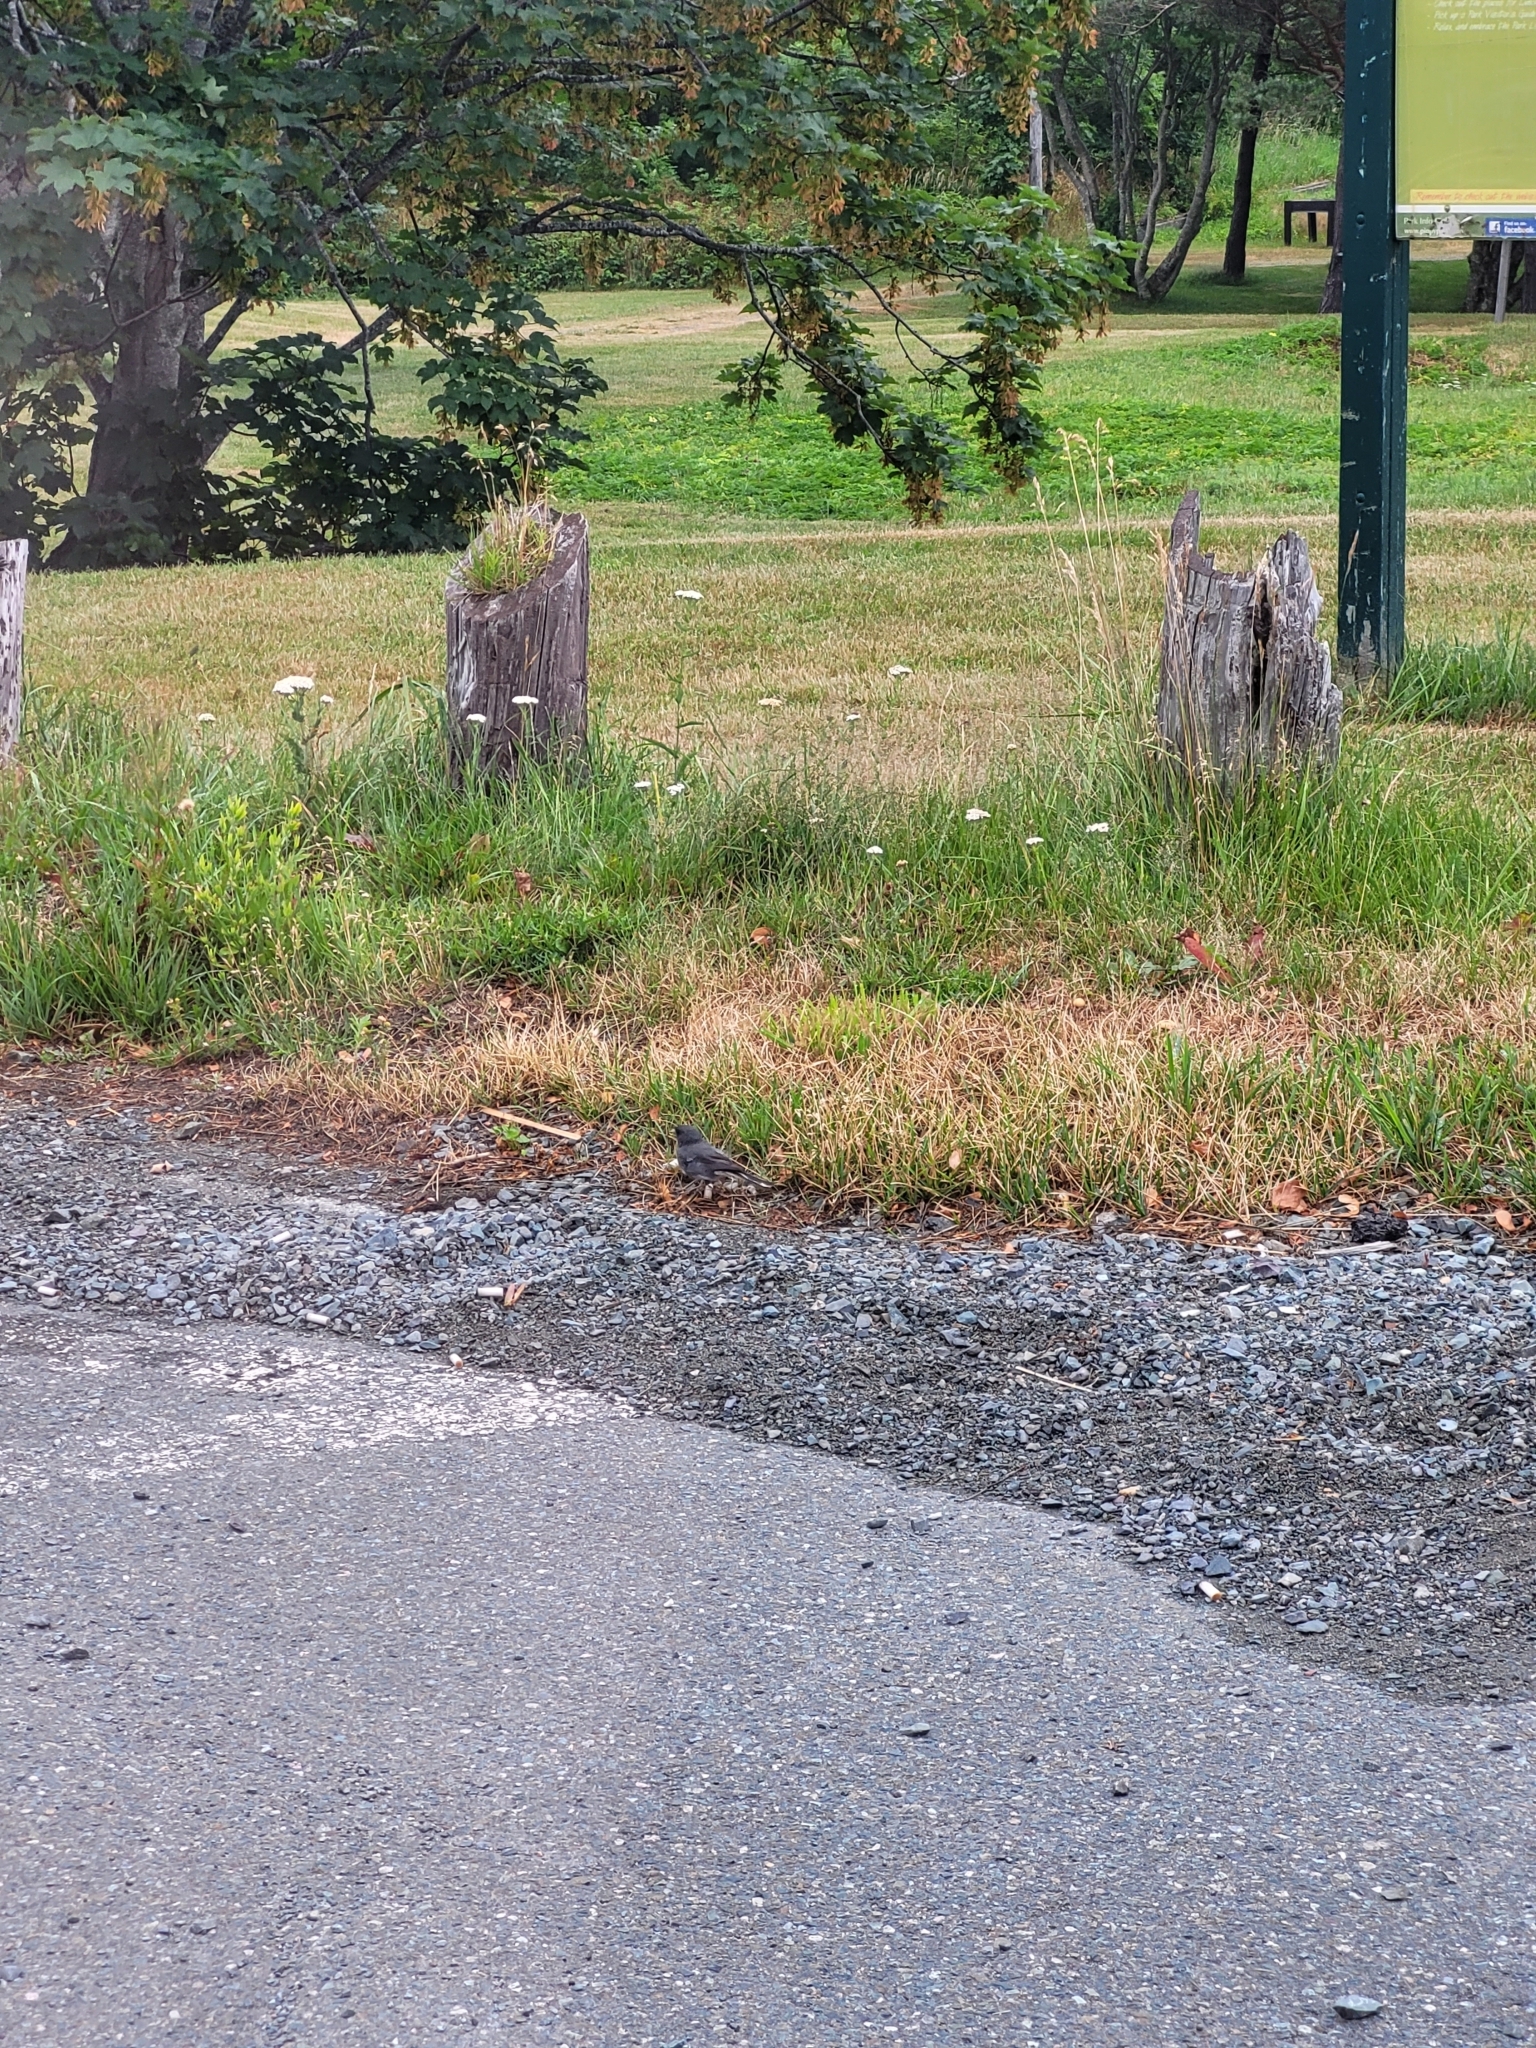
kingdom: Animalia
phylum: Chordata
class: Aves
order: Passeriformes
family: Passerellidae
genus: Junco
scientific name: Junco hyemalis
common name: Dark-eyed junco
